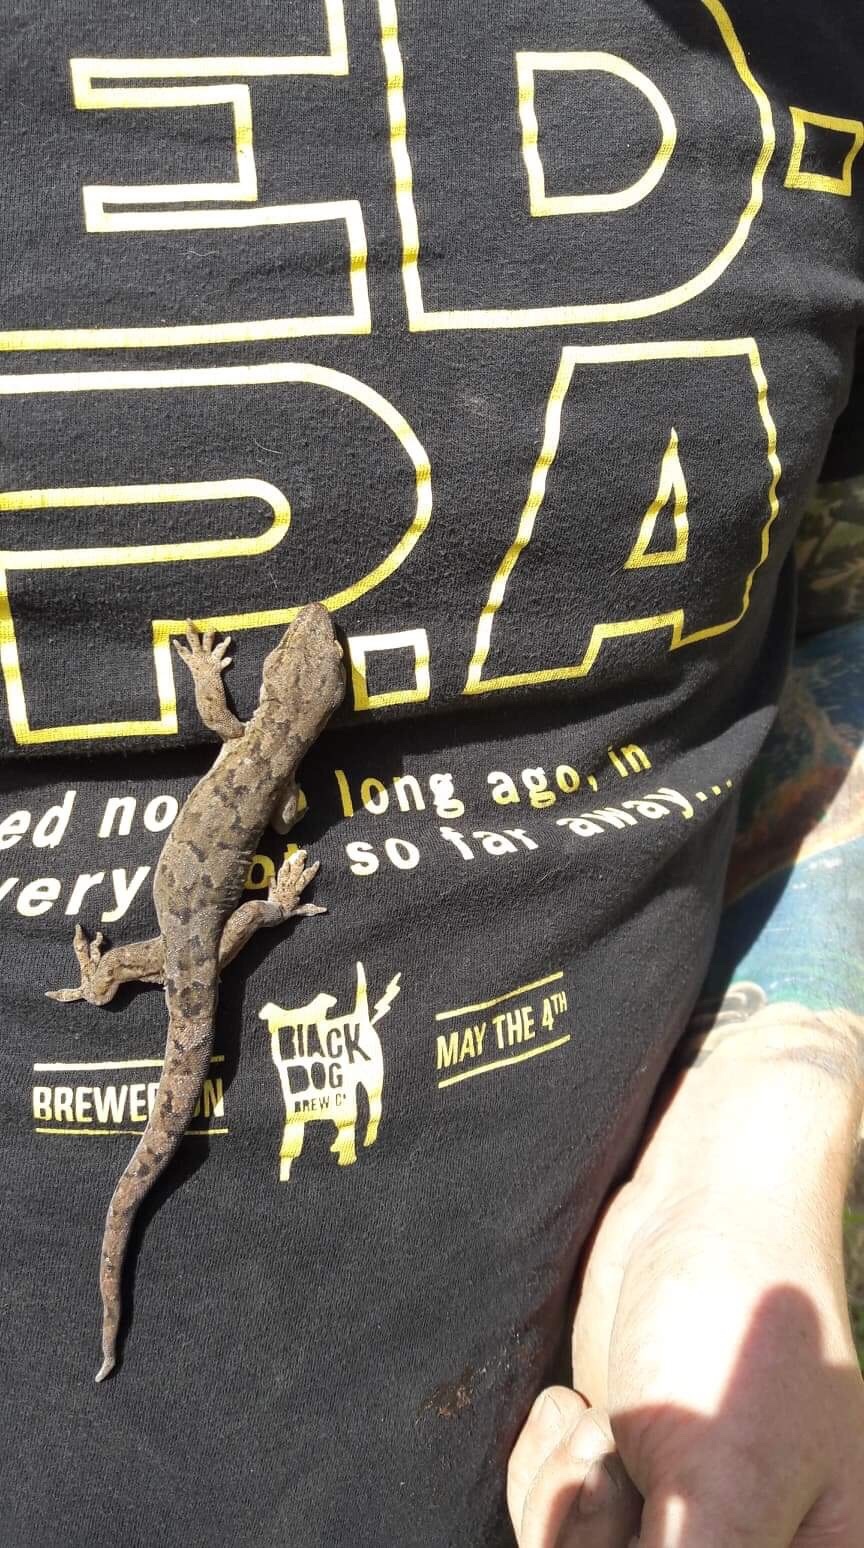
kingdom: Animalia
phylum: Chordata
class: Squamata
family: Diplodactylidae
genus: Woodworthia
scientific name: Woodworthia maculata
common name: Raukawa gecko
